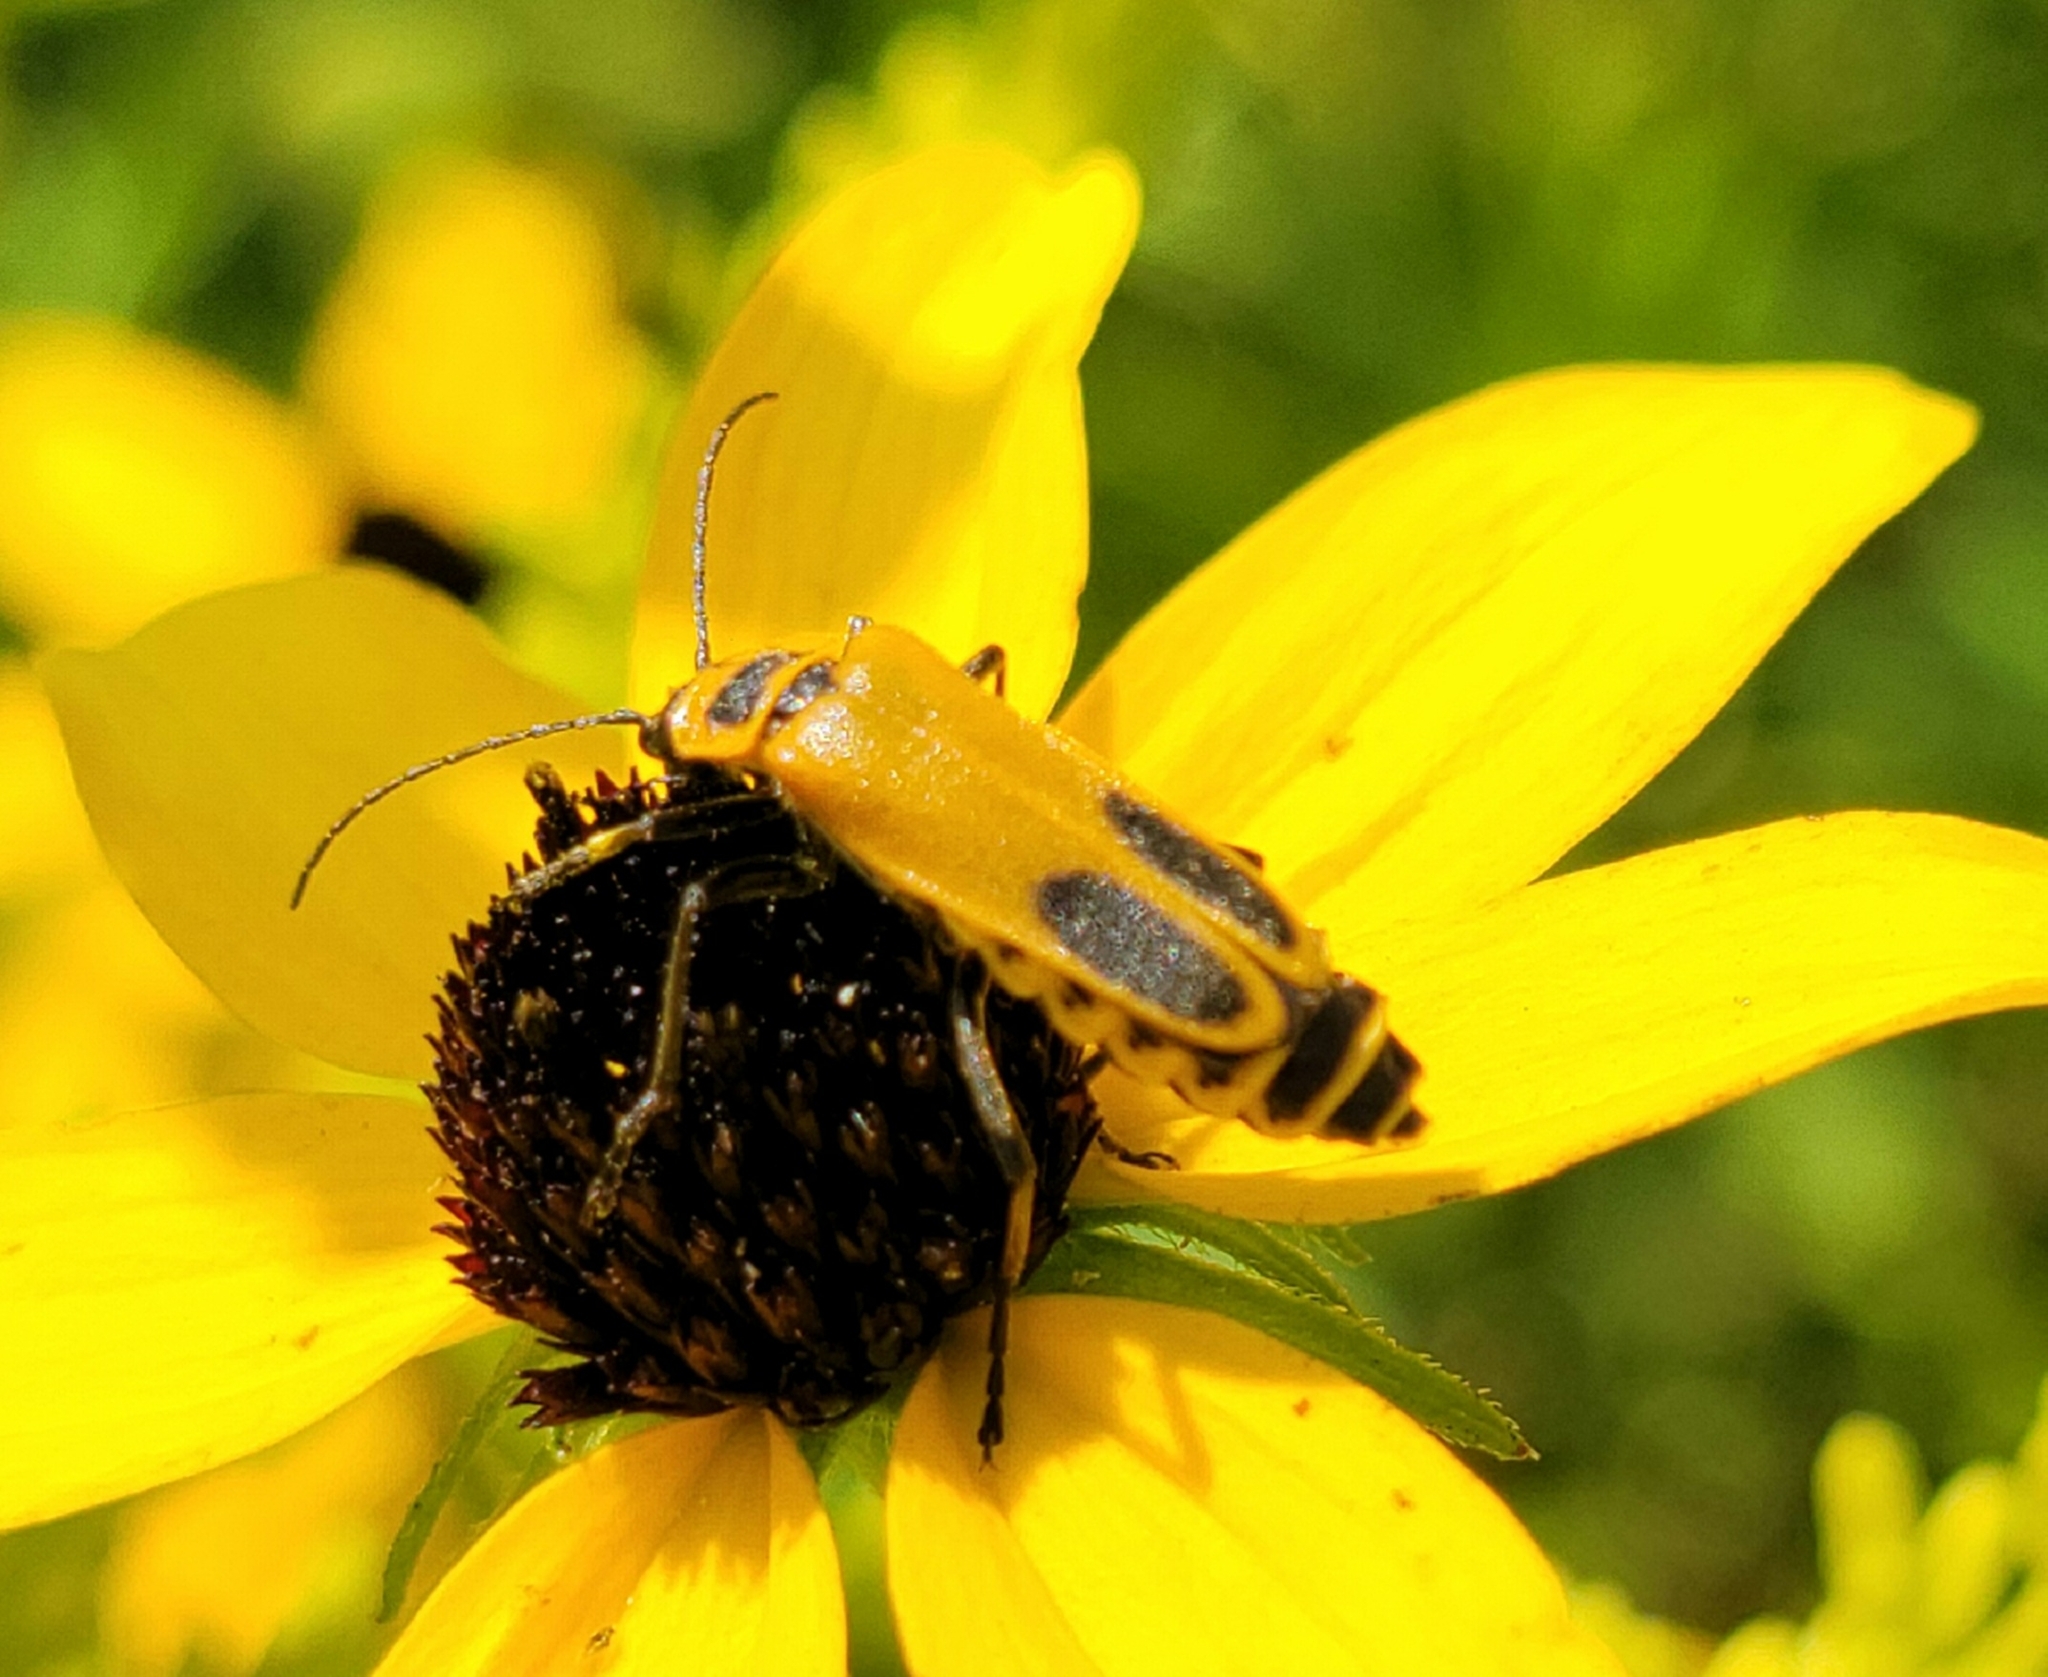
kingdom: Animalia
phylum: Arthropoda
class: Insecta
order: Coleoptera
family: Cantharidae
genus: Chauliognathus
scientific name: Chauliognathus pensylvanicus
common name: Goldenrod soldier beetle
